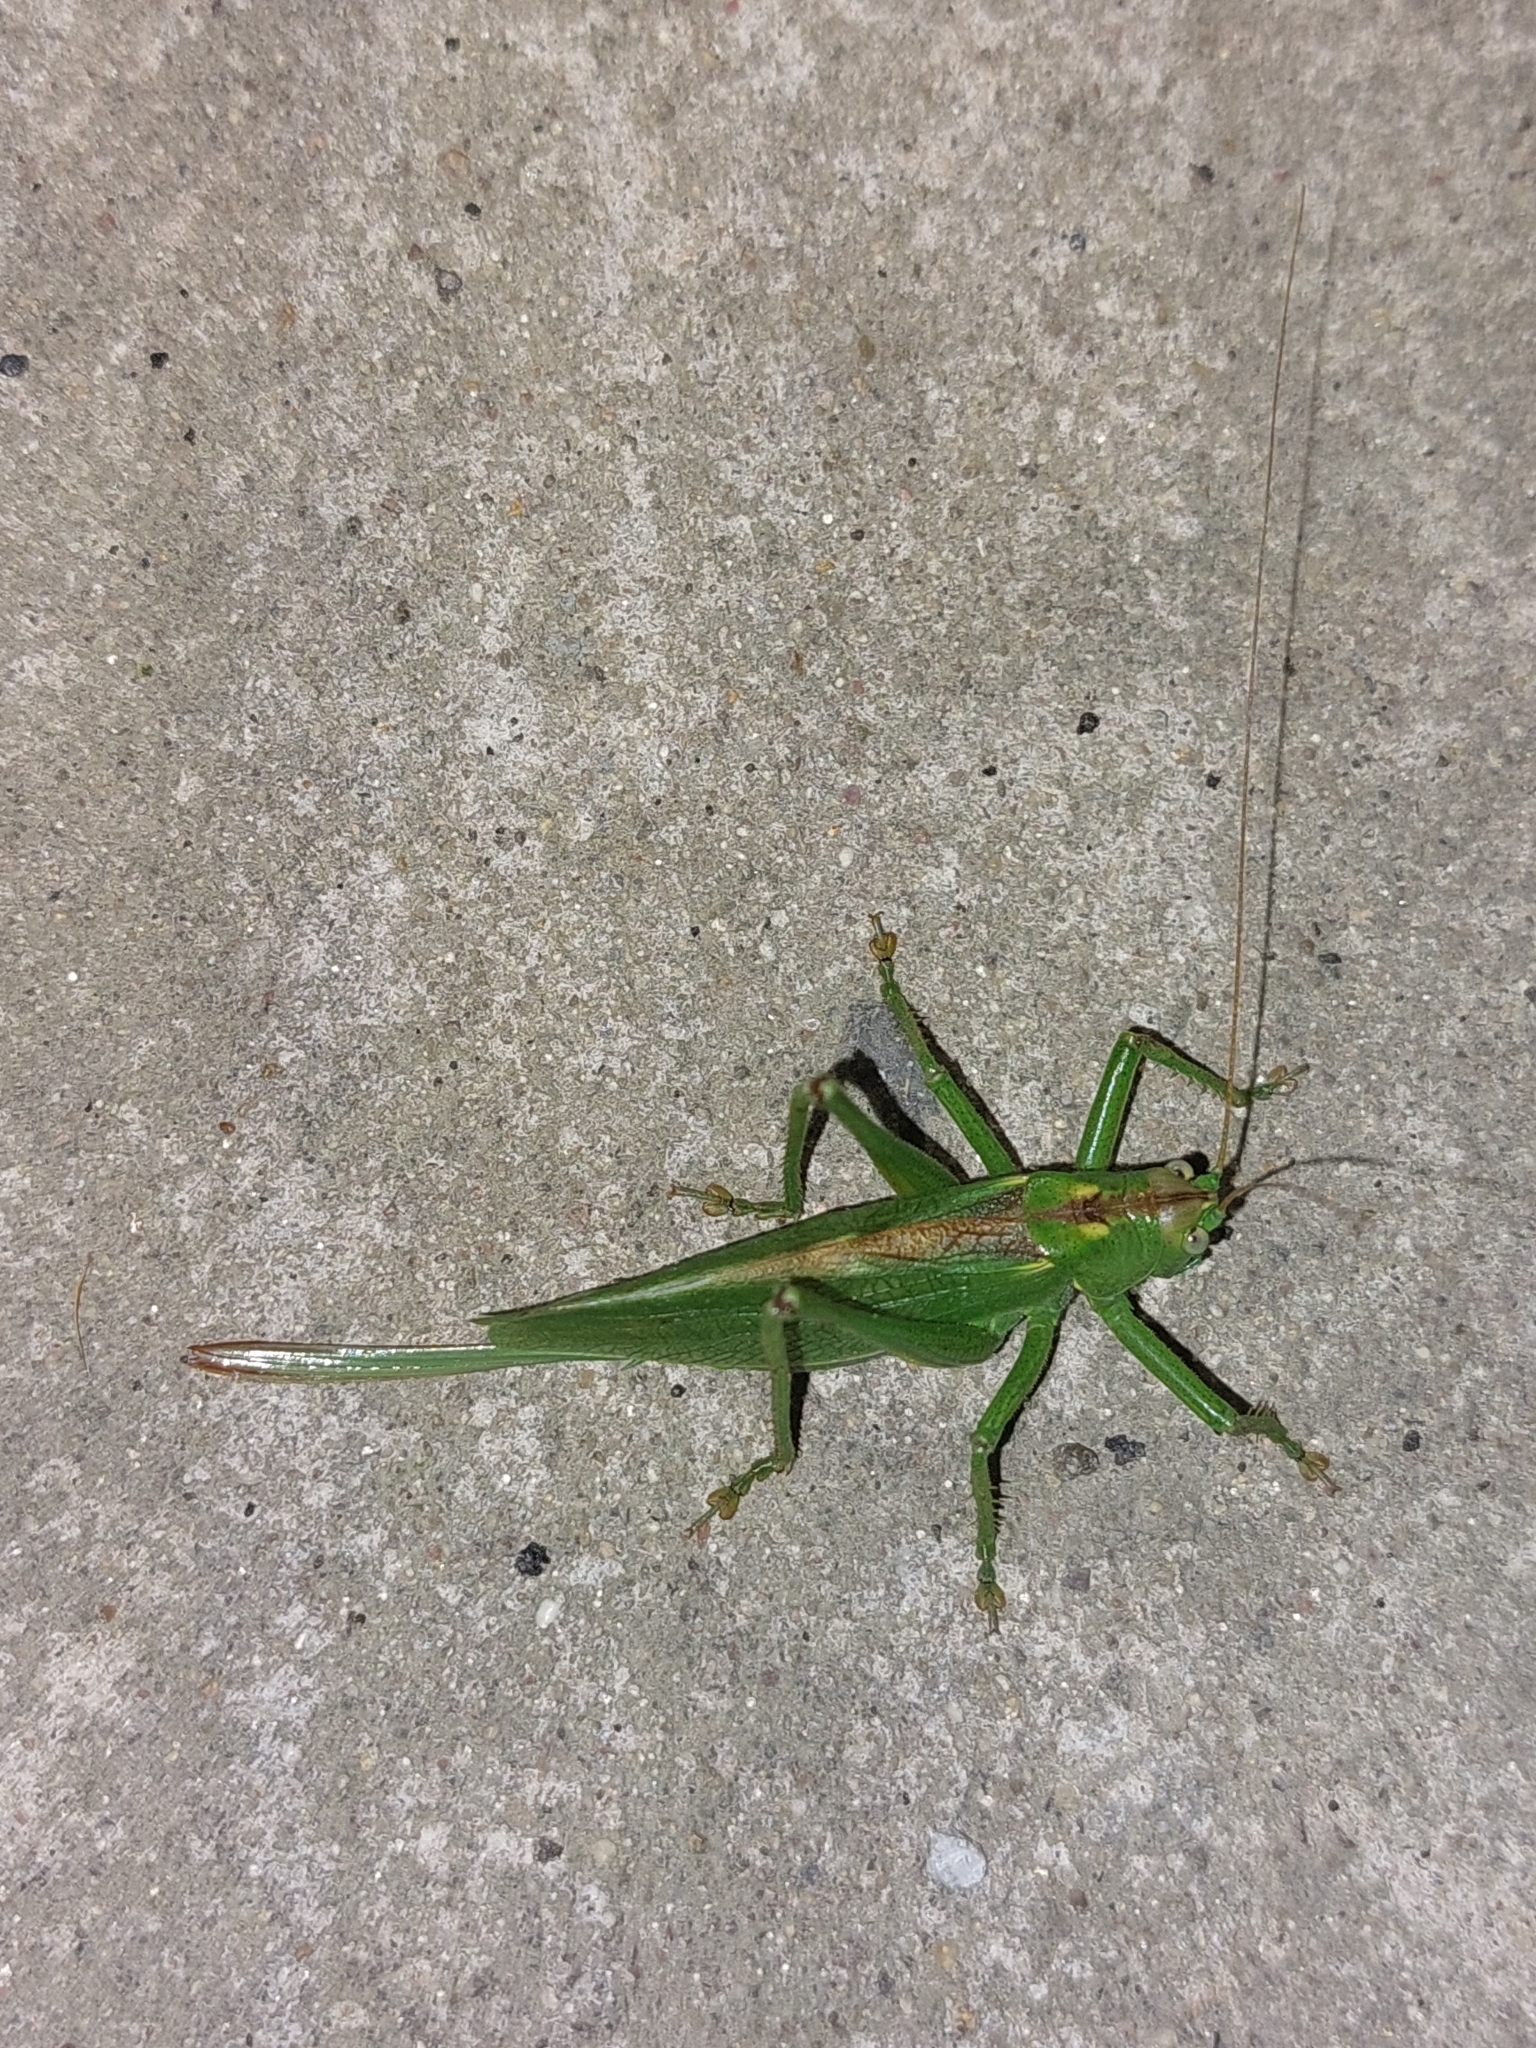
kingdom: Animalia
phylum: Arthropoda
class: Insecta
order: Orthoptera
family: Tettigoniidae
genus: Tettigonia
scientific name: Tettigonia cantans
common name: Upland green bush-cricket
